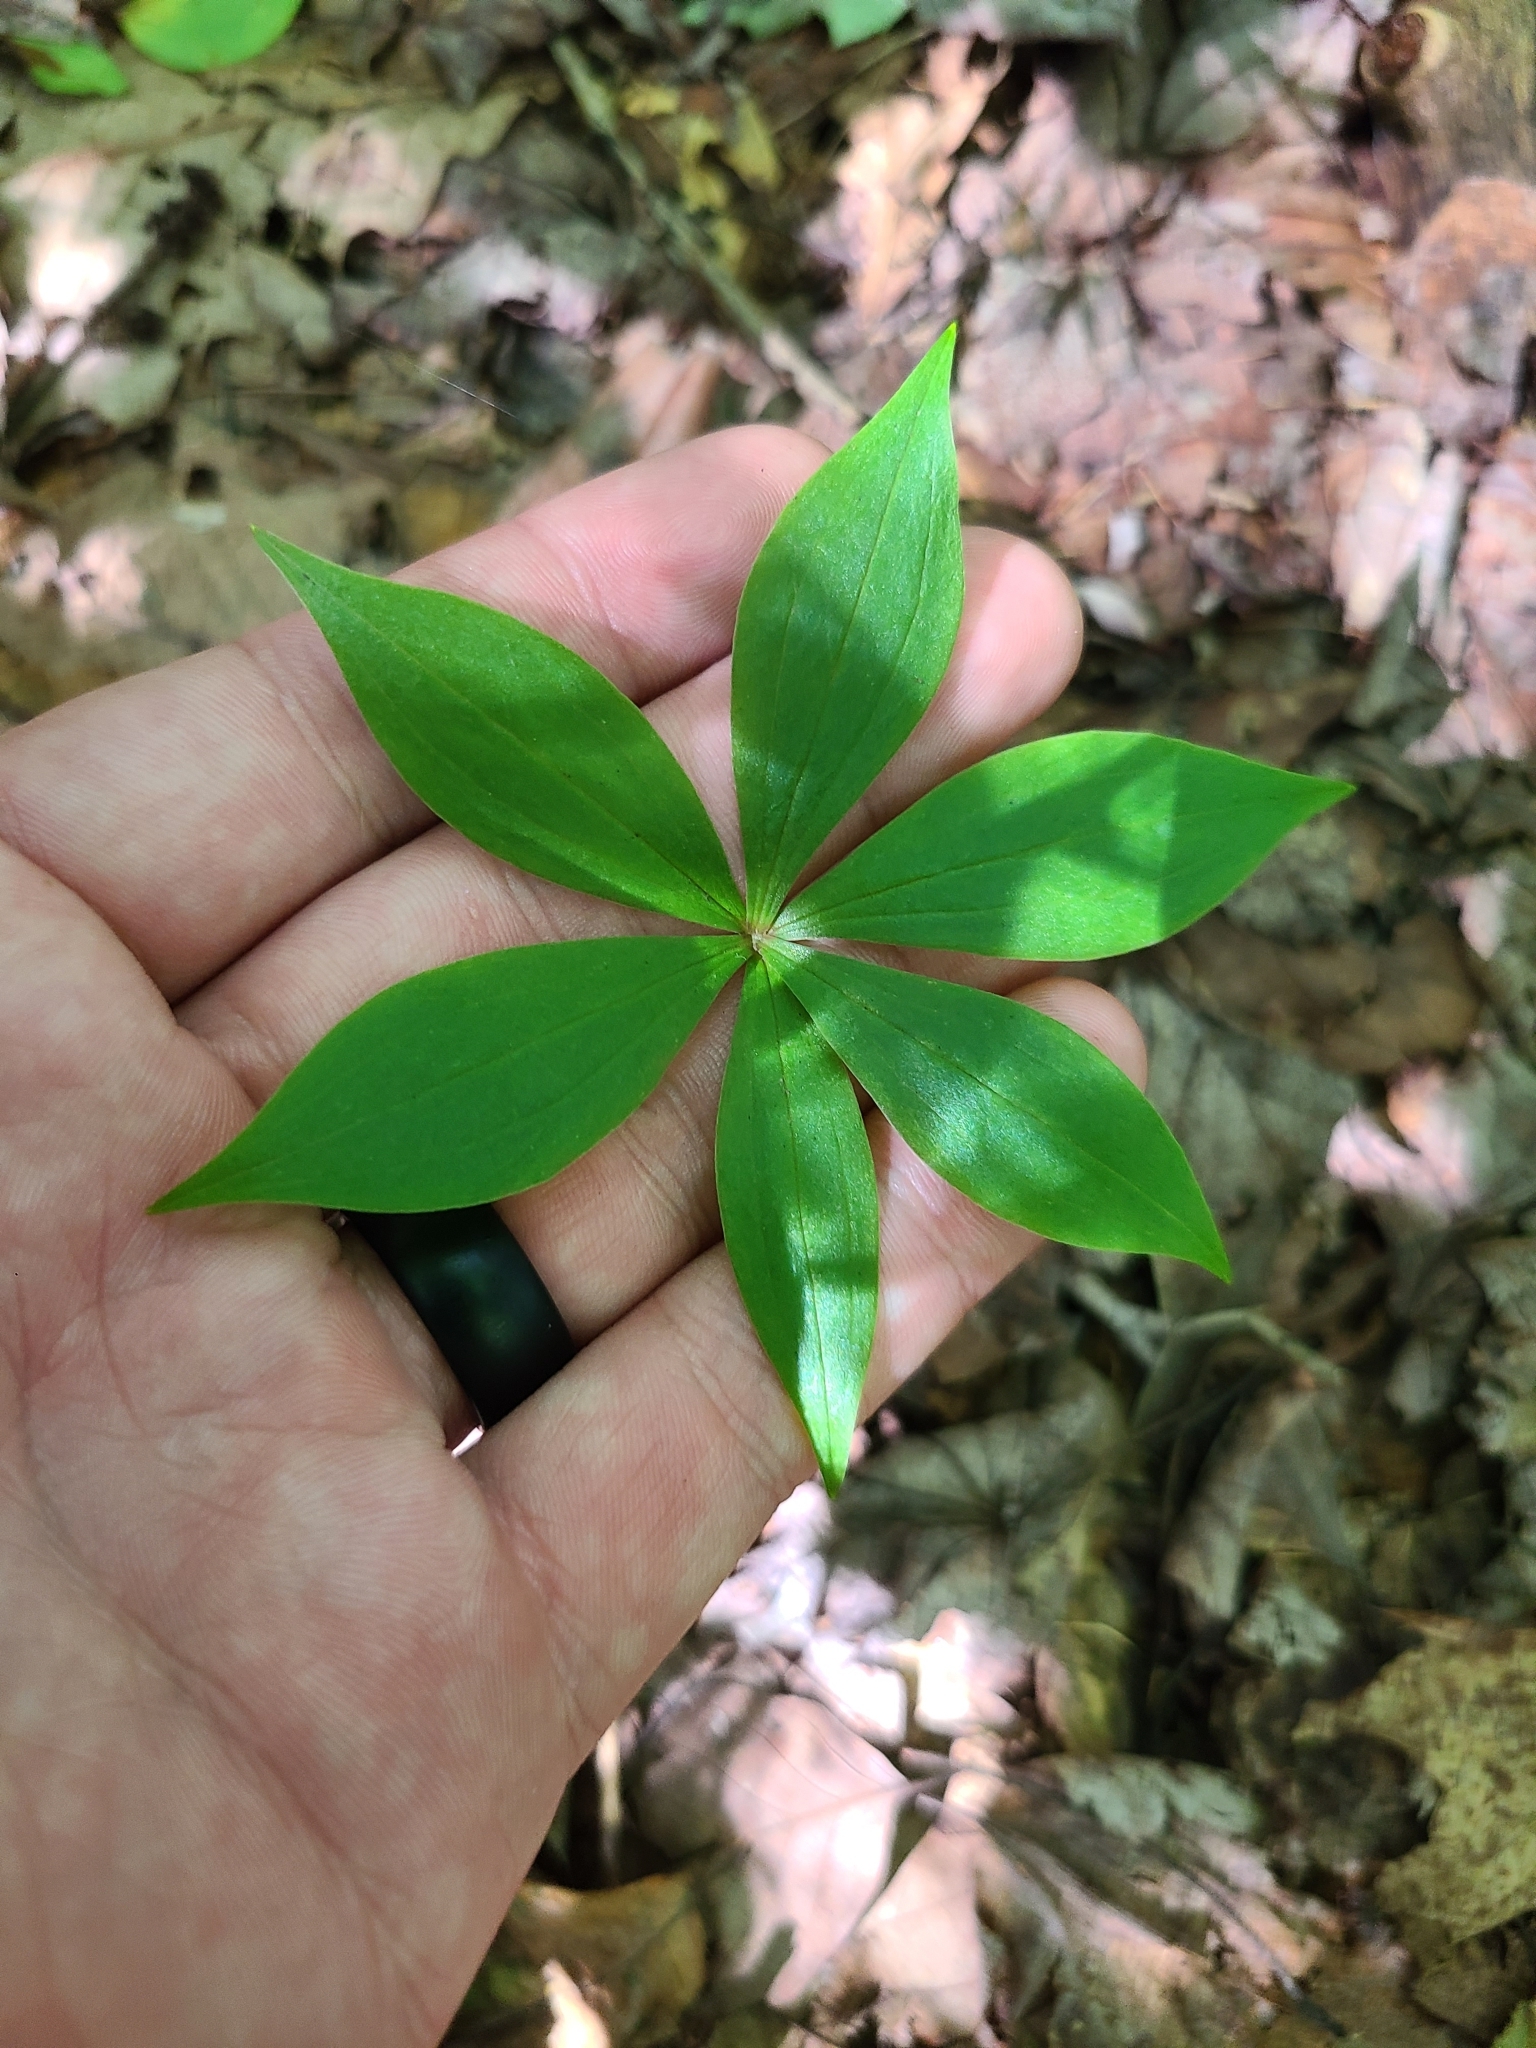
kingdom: Plantae
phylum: Tracheophyta
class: Liliopsida
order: Liliales
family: Liliaceae
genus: Medeola
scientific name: Medeola virginiana
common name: Indian cucumber-root
